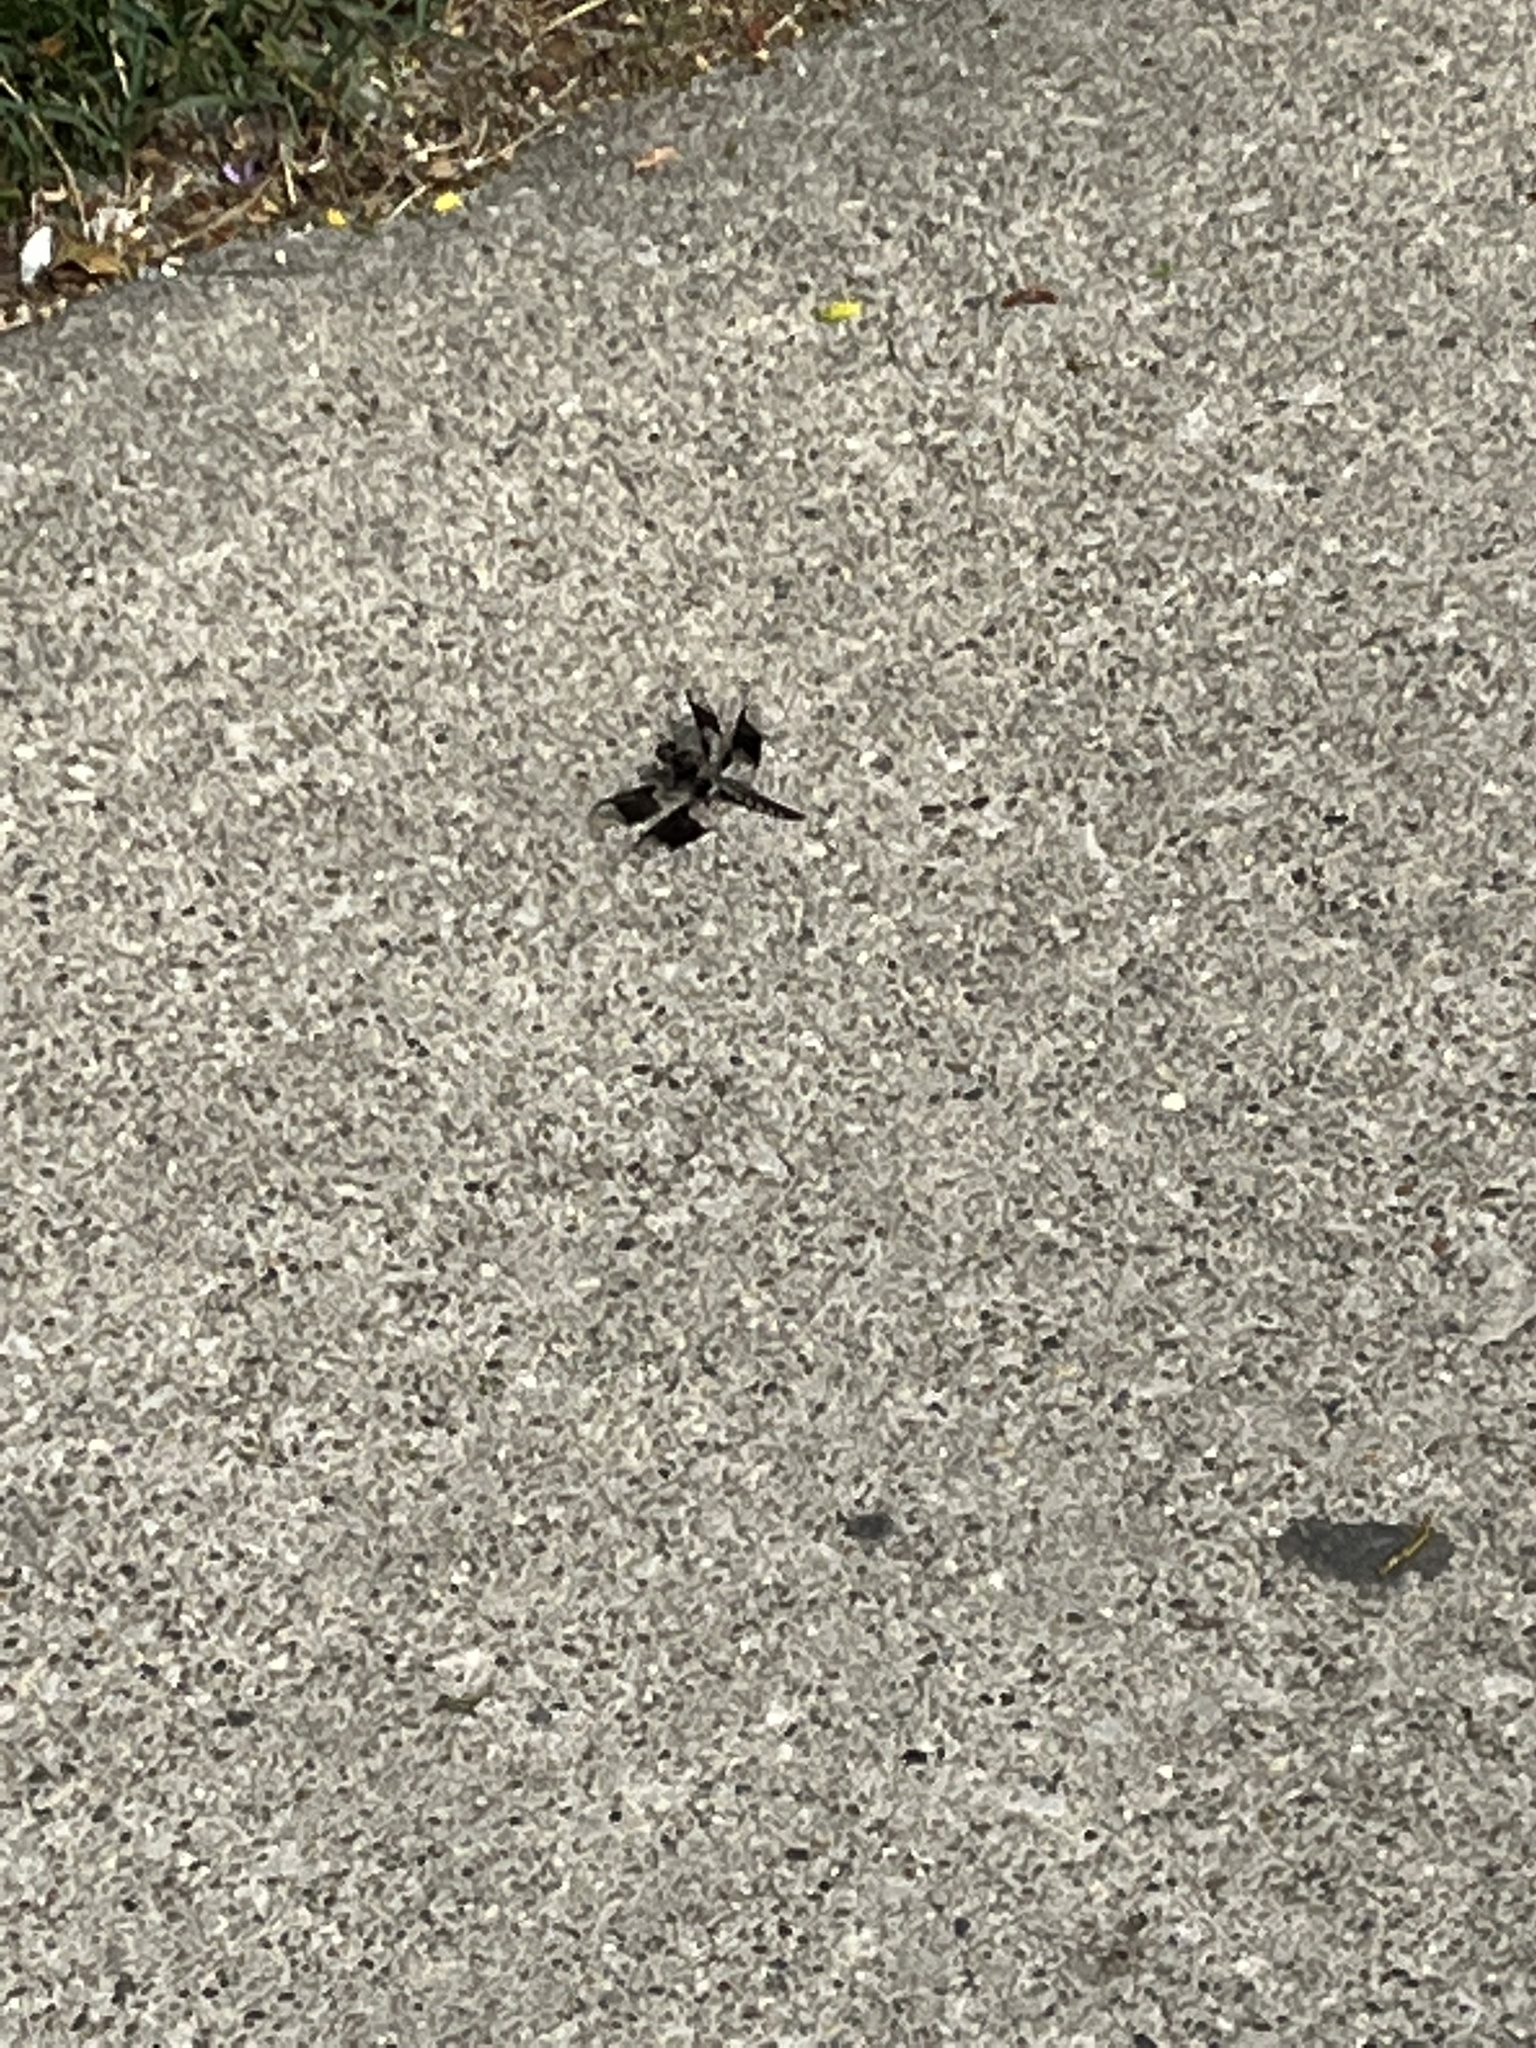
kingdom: Animalia
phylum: Arthropoda
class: Insecta
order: Odonata
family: Libellulidae
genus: Plathemis
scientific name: Plathemis lydia
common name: Common whitetail
